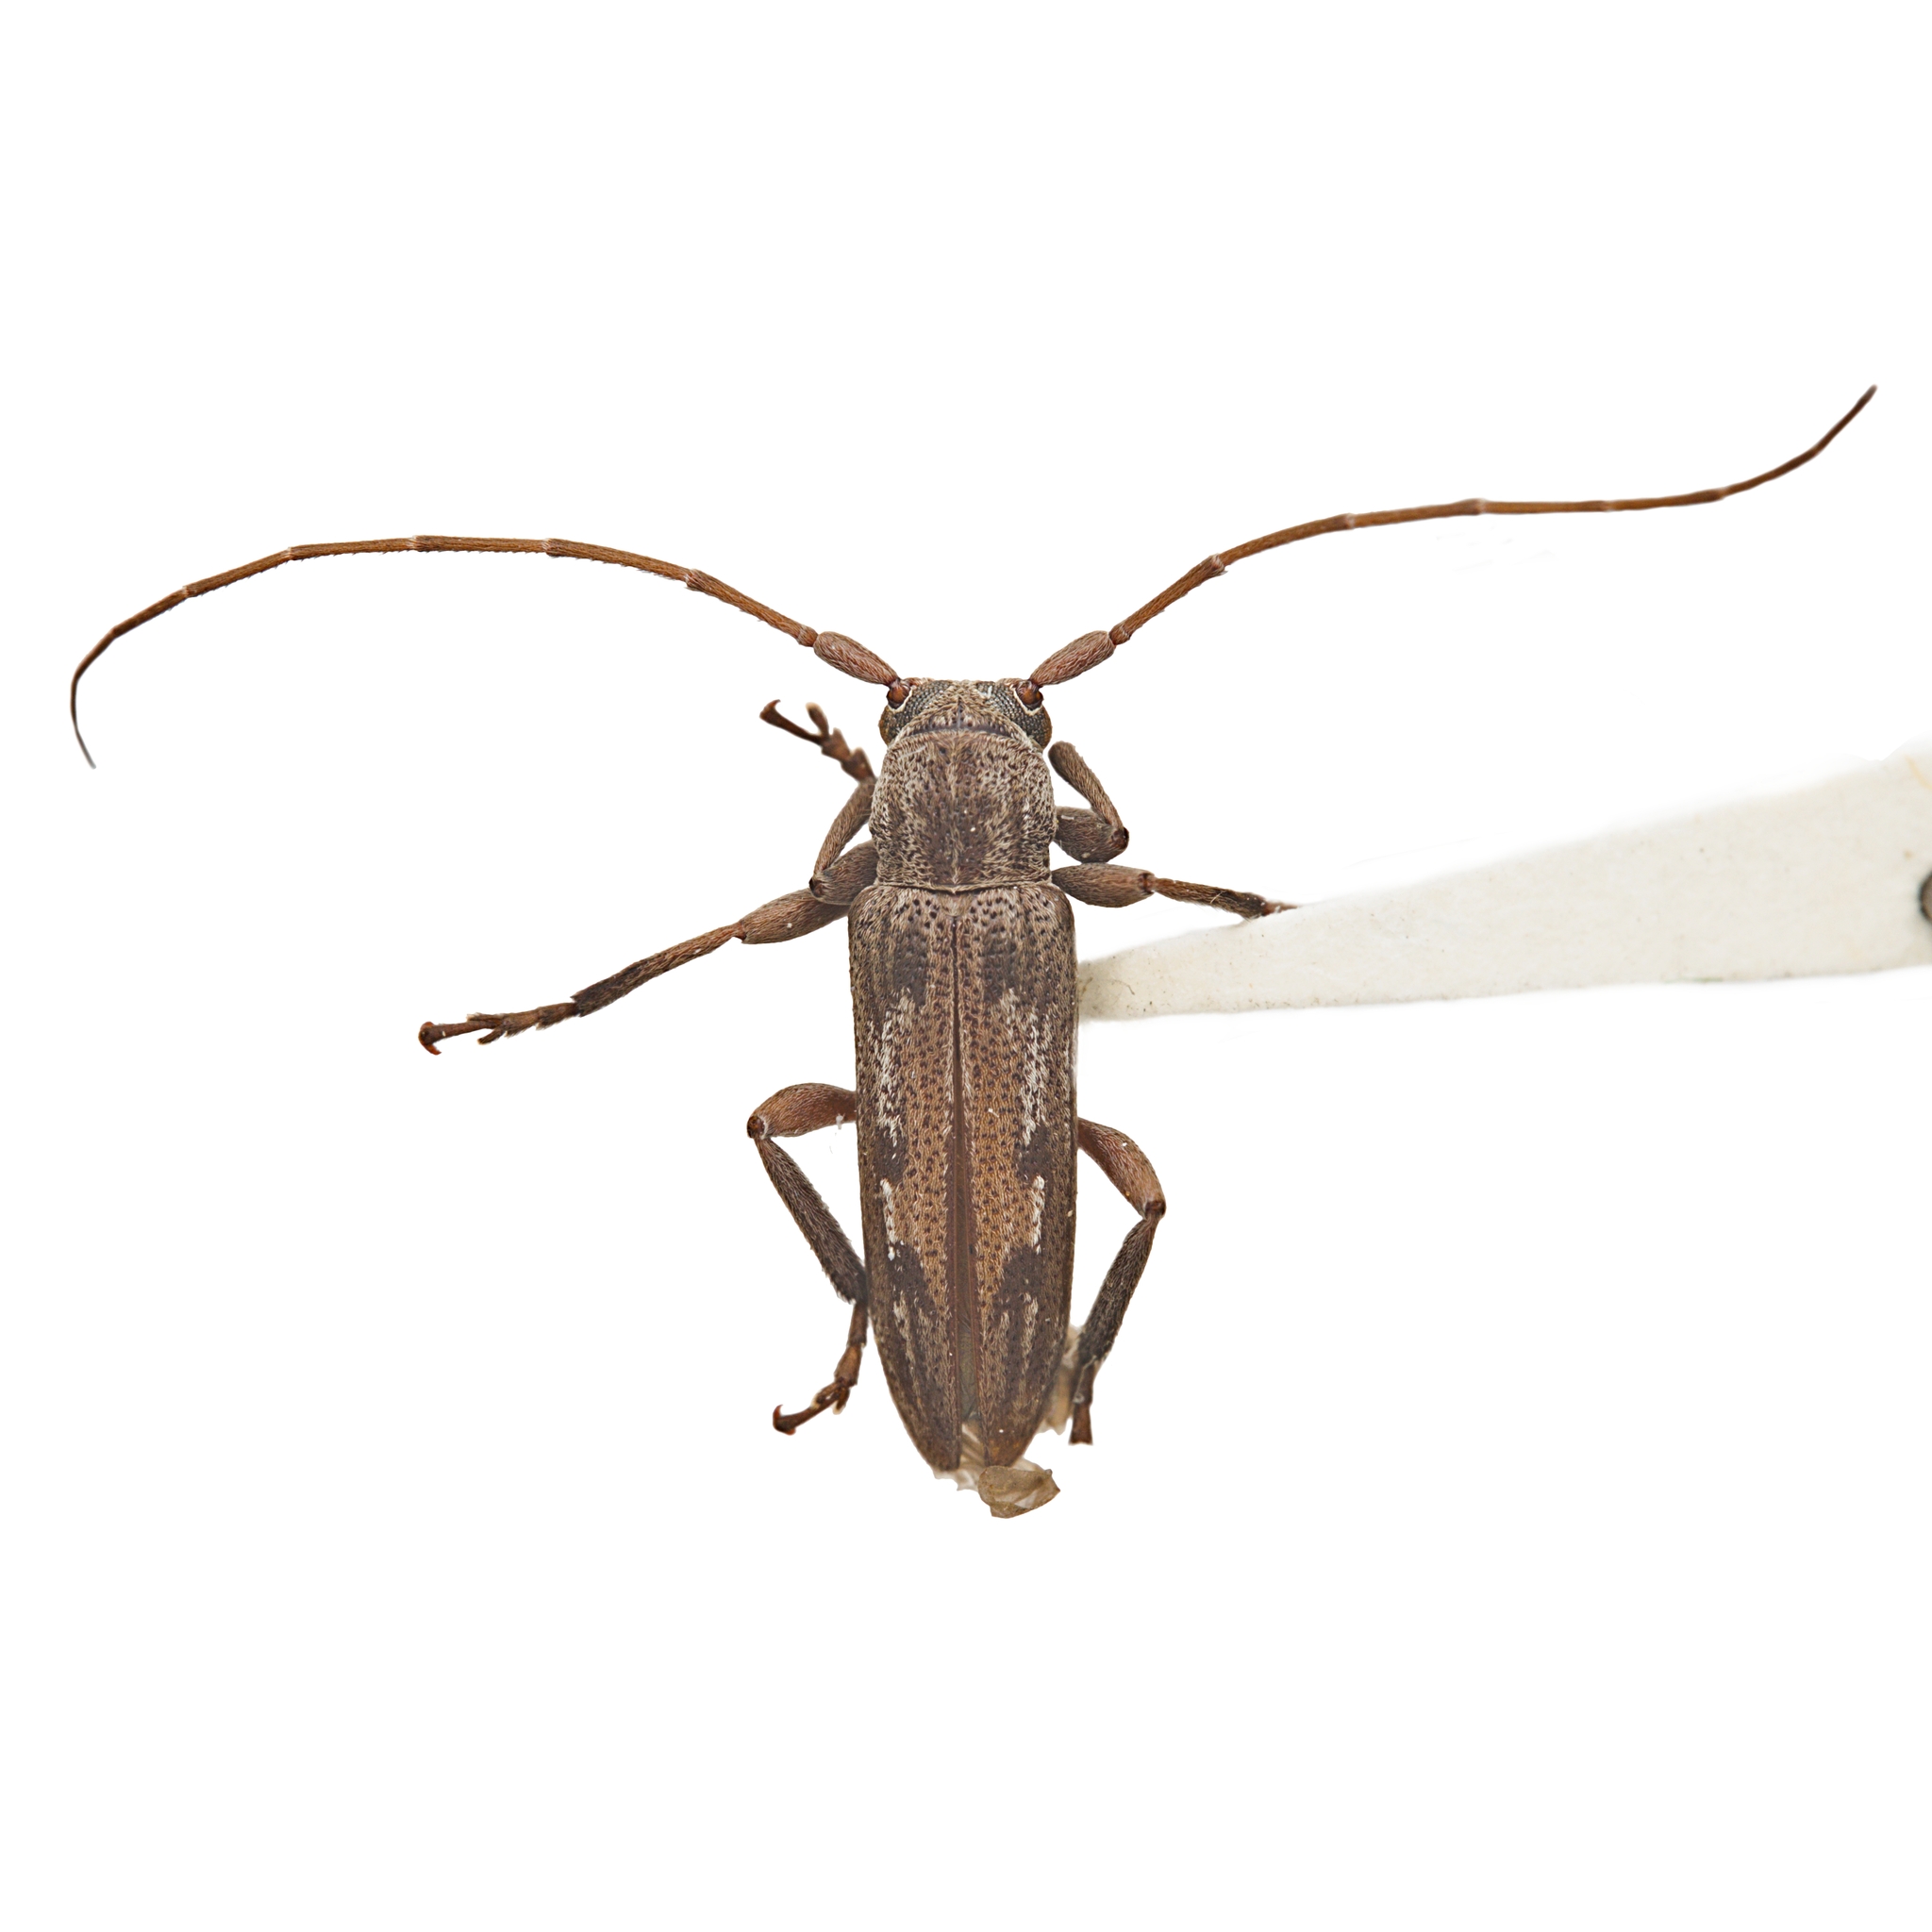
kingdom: Animalia
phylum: Arthropoda
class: Insecta
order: Coleoptera
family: Cerambycidae
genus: Lypsimena
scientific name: Lypsimena fuscata
